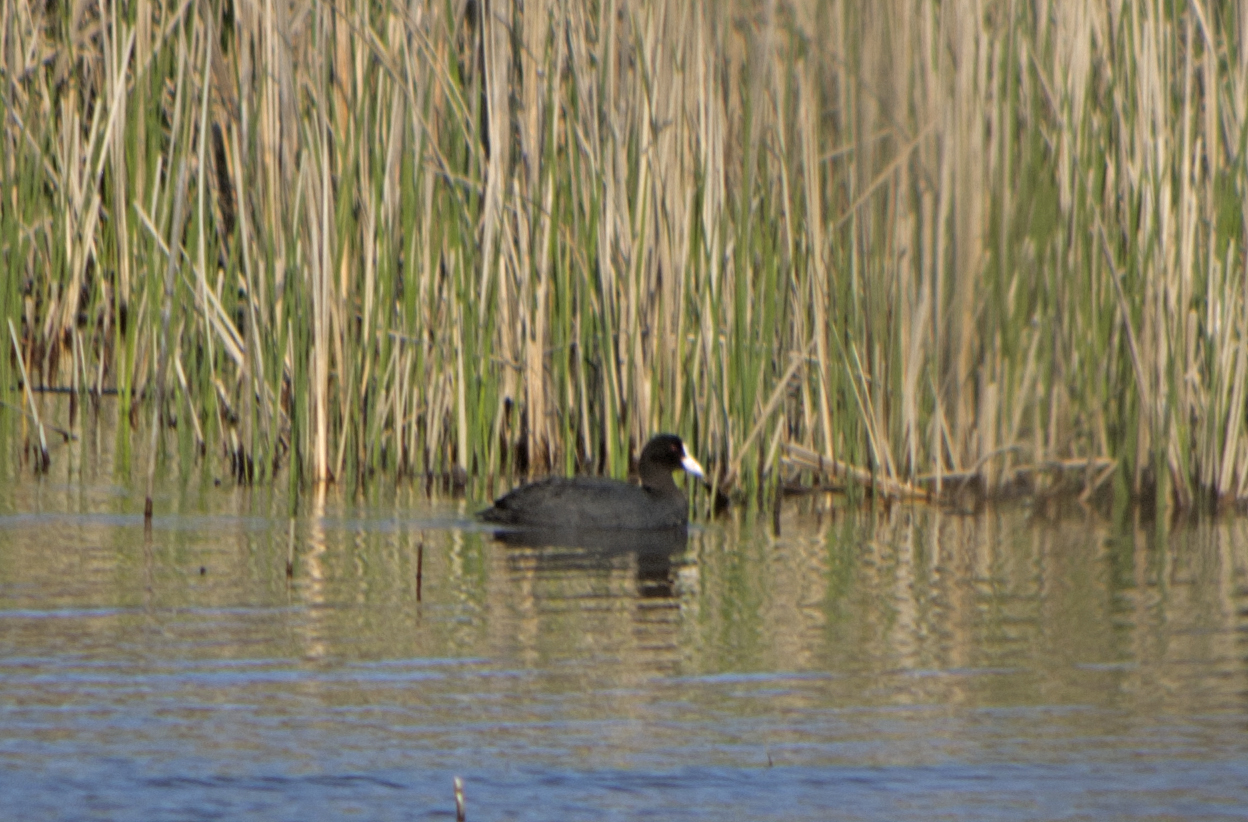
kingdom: Animalia
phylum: Chordata
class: Aves
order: Gruiformes
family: Rallidae
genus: Fulica
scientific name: Fulica atra
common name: Eurasian coot
